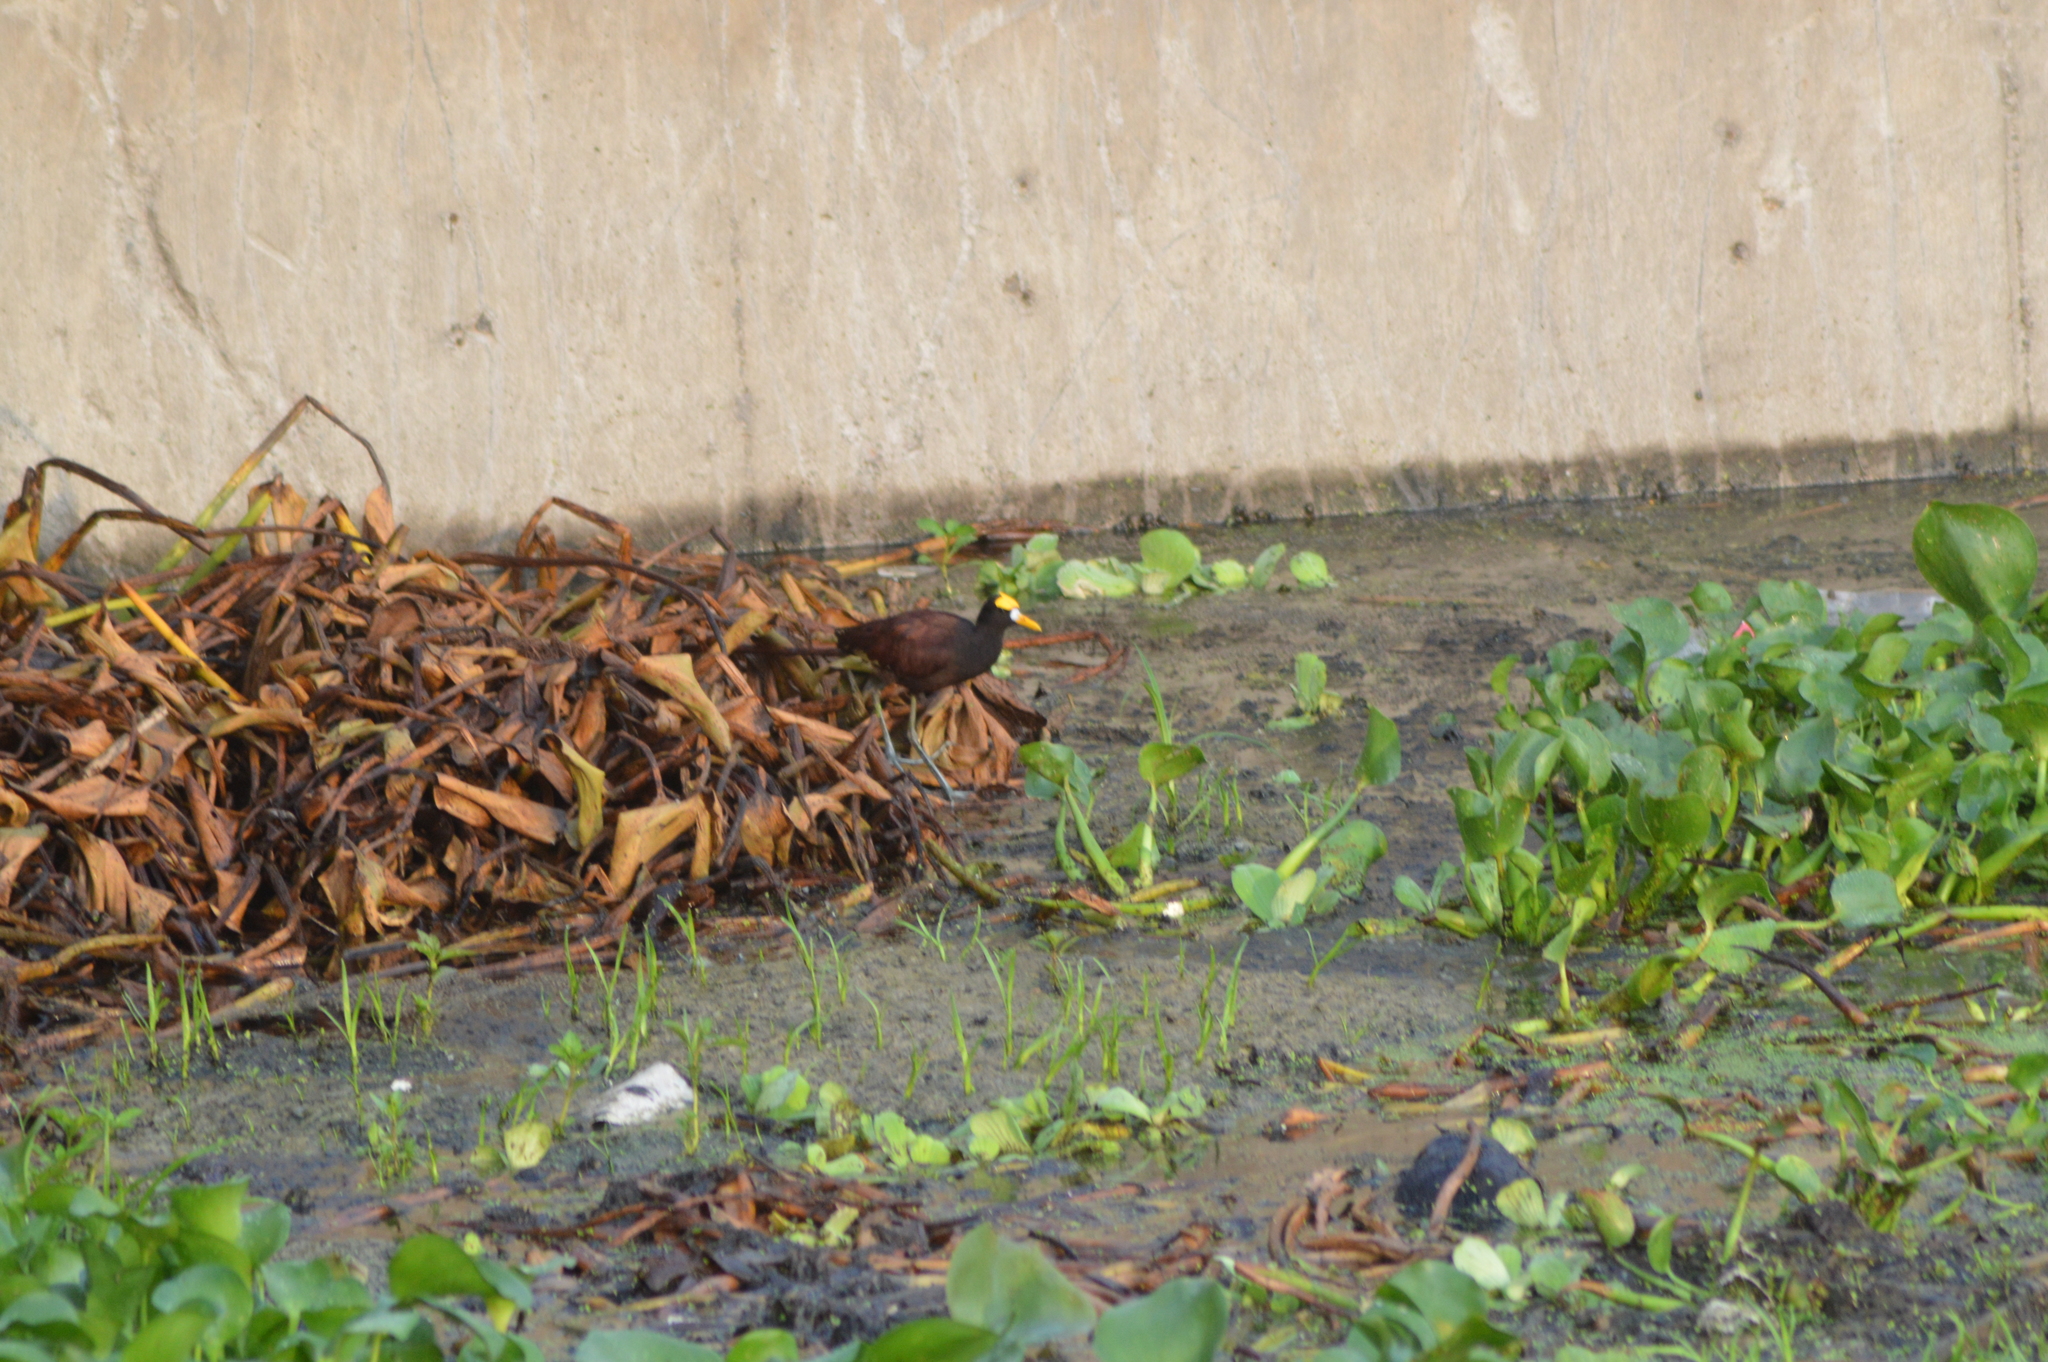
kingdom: Animalia
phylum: Chordata
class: Aves
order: Charadriiformes
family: Jacanidae
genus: Jacana
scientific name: Jacana spinosa
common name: Northern jacana
